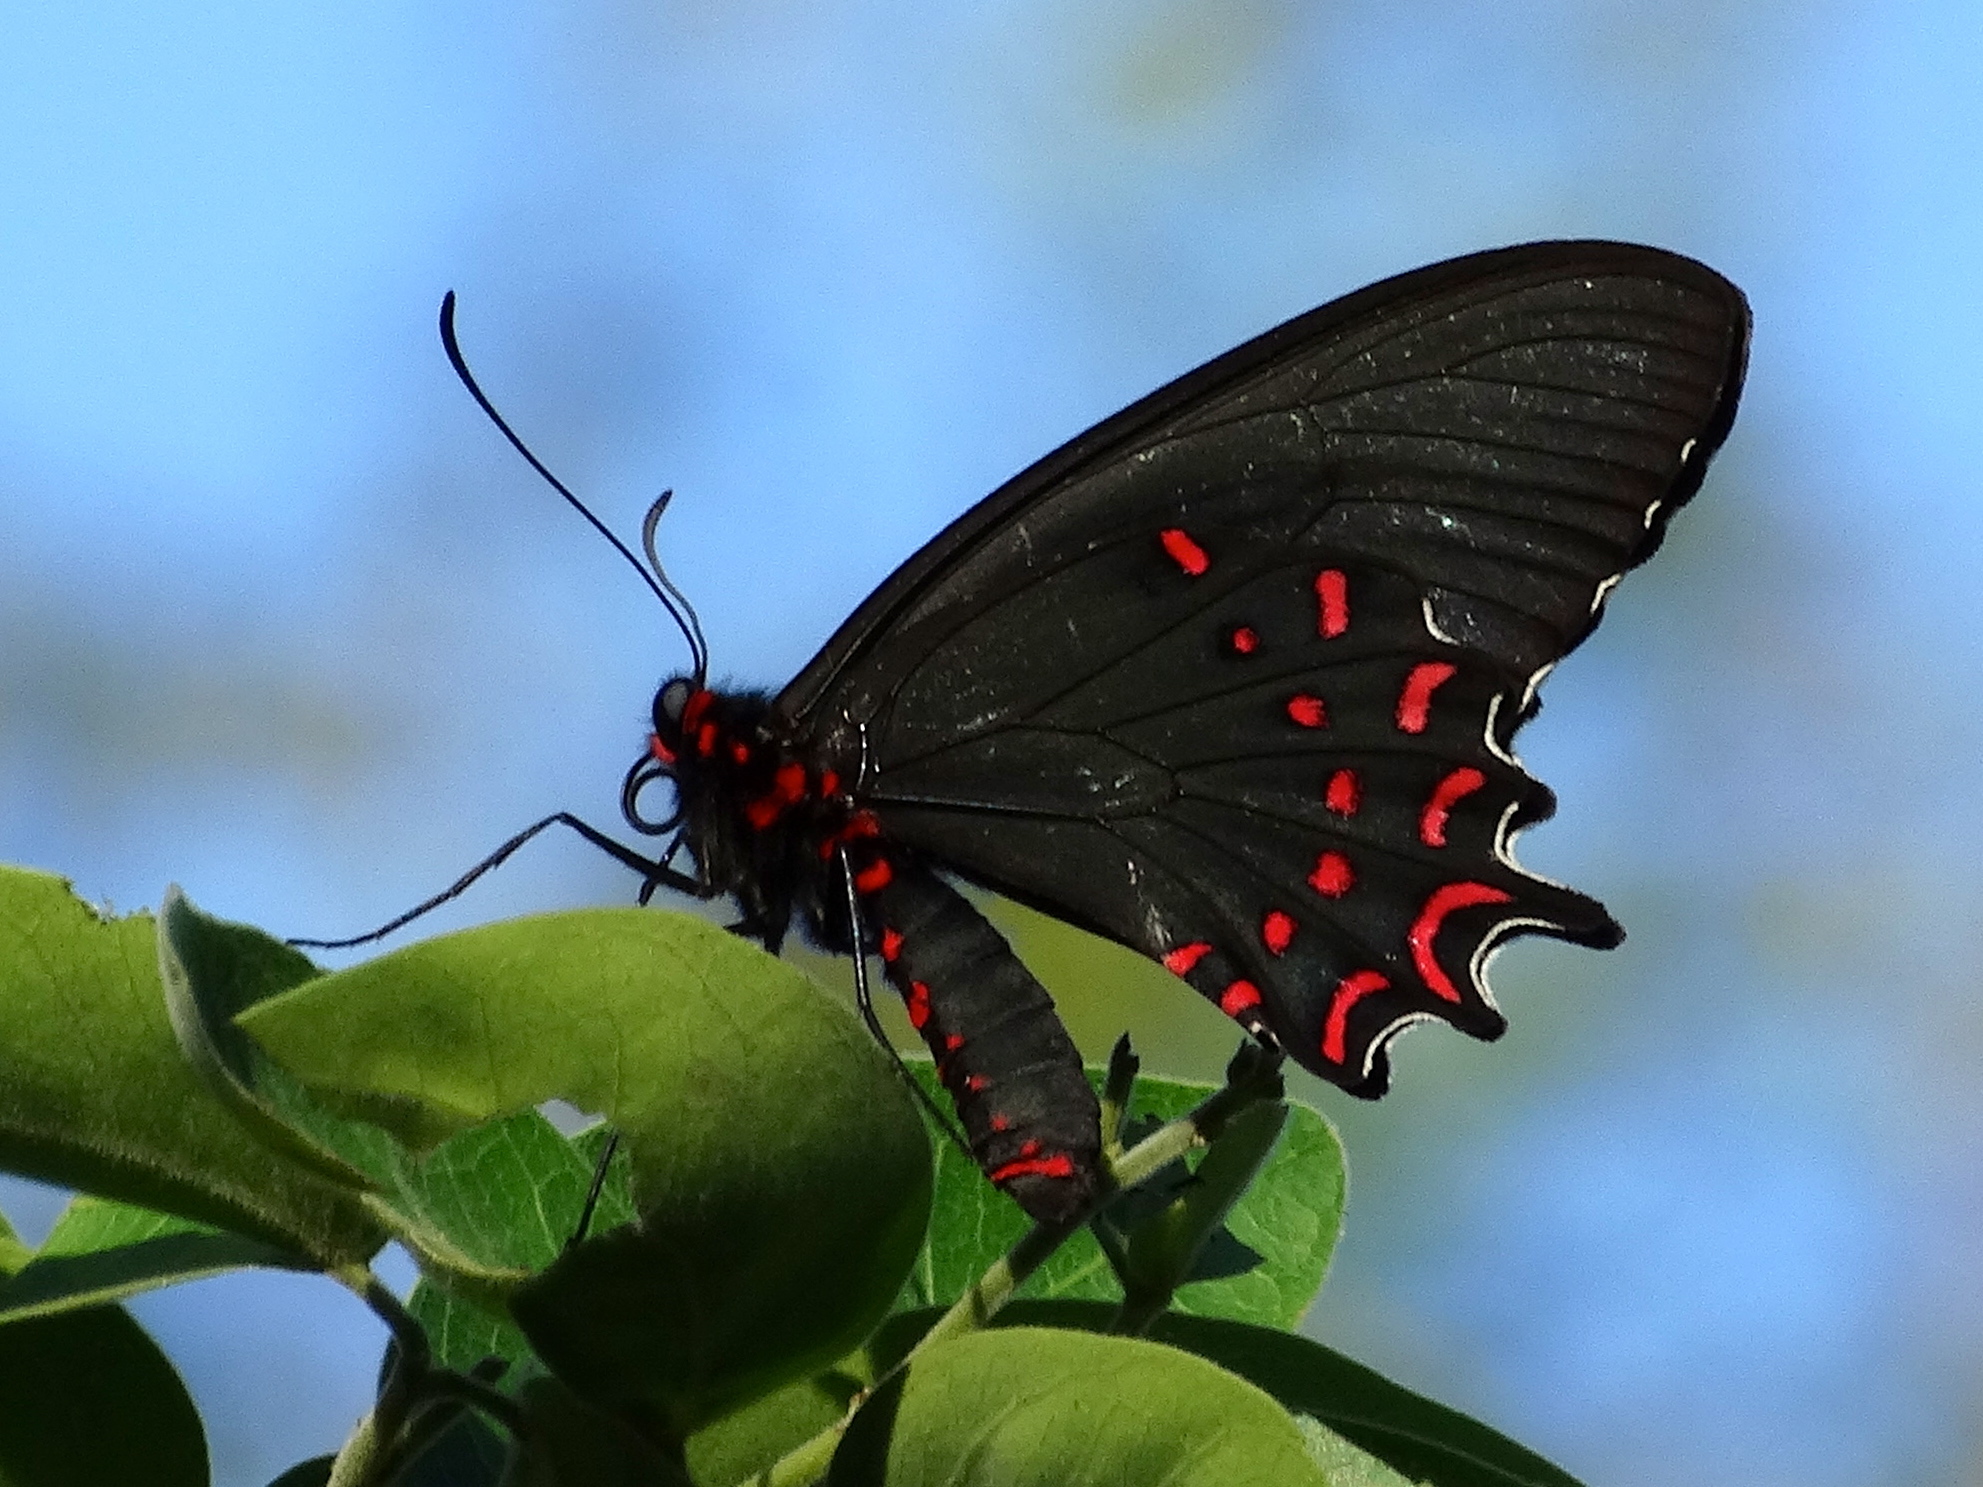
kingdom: Animalia
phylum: Arthropoda
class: Insecta
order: Lepidoptera
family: Papilionidae
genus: Parides
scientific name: Parides photinus
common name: Pink-spotted cattleheart
